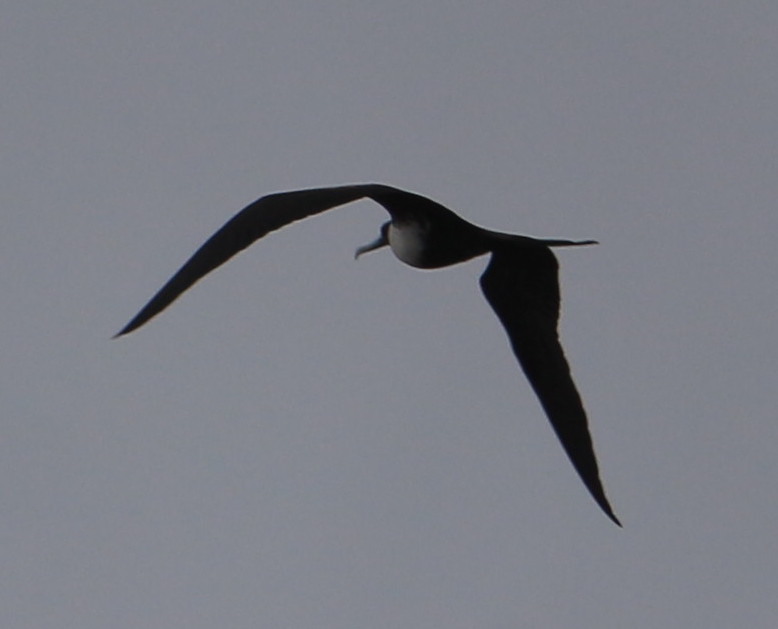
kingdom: Animalia
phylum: Chordata
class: Aves
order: Suliformes
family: Fregatidae
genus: Fregata
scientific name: Fregata magnificens
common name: Magnificent frigatebird
